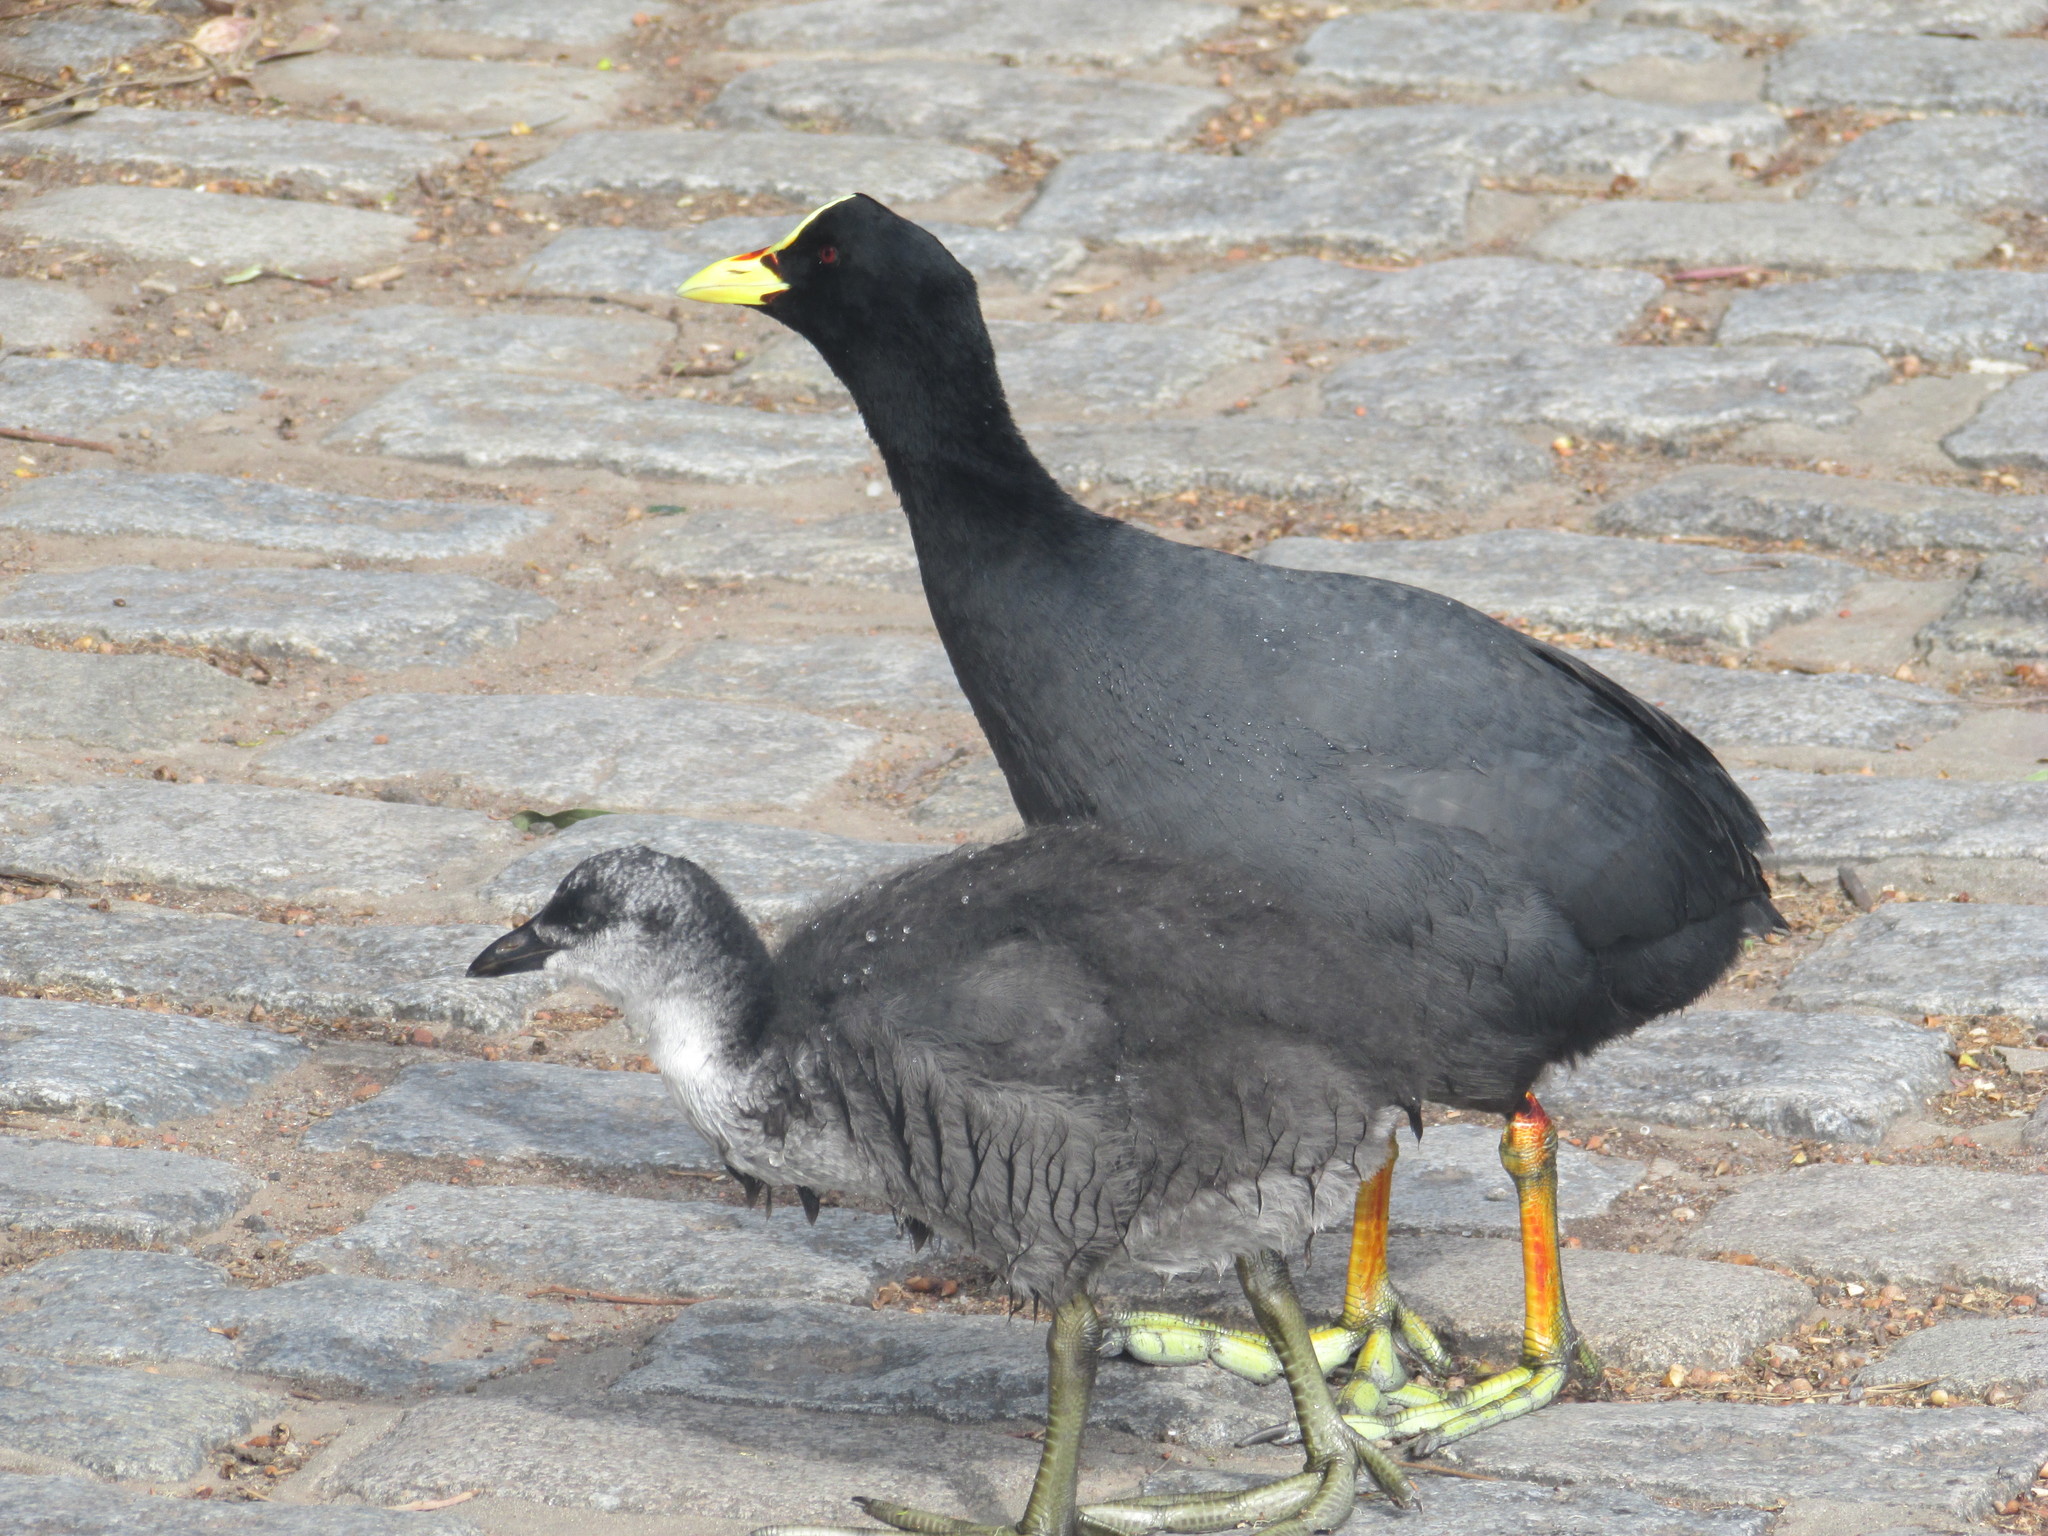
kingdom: Animalia
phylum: Chordata
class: Aves
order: Gruiformes
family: Rallidae
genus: Fulica
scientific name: Fulica armillata
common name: Red-gartered coot
